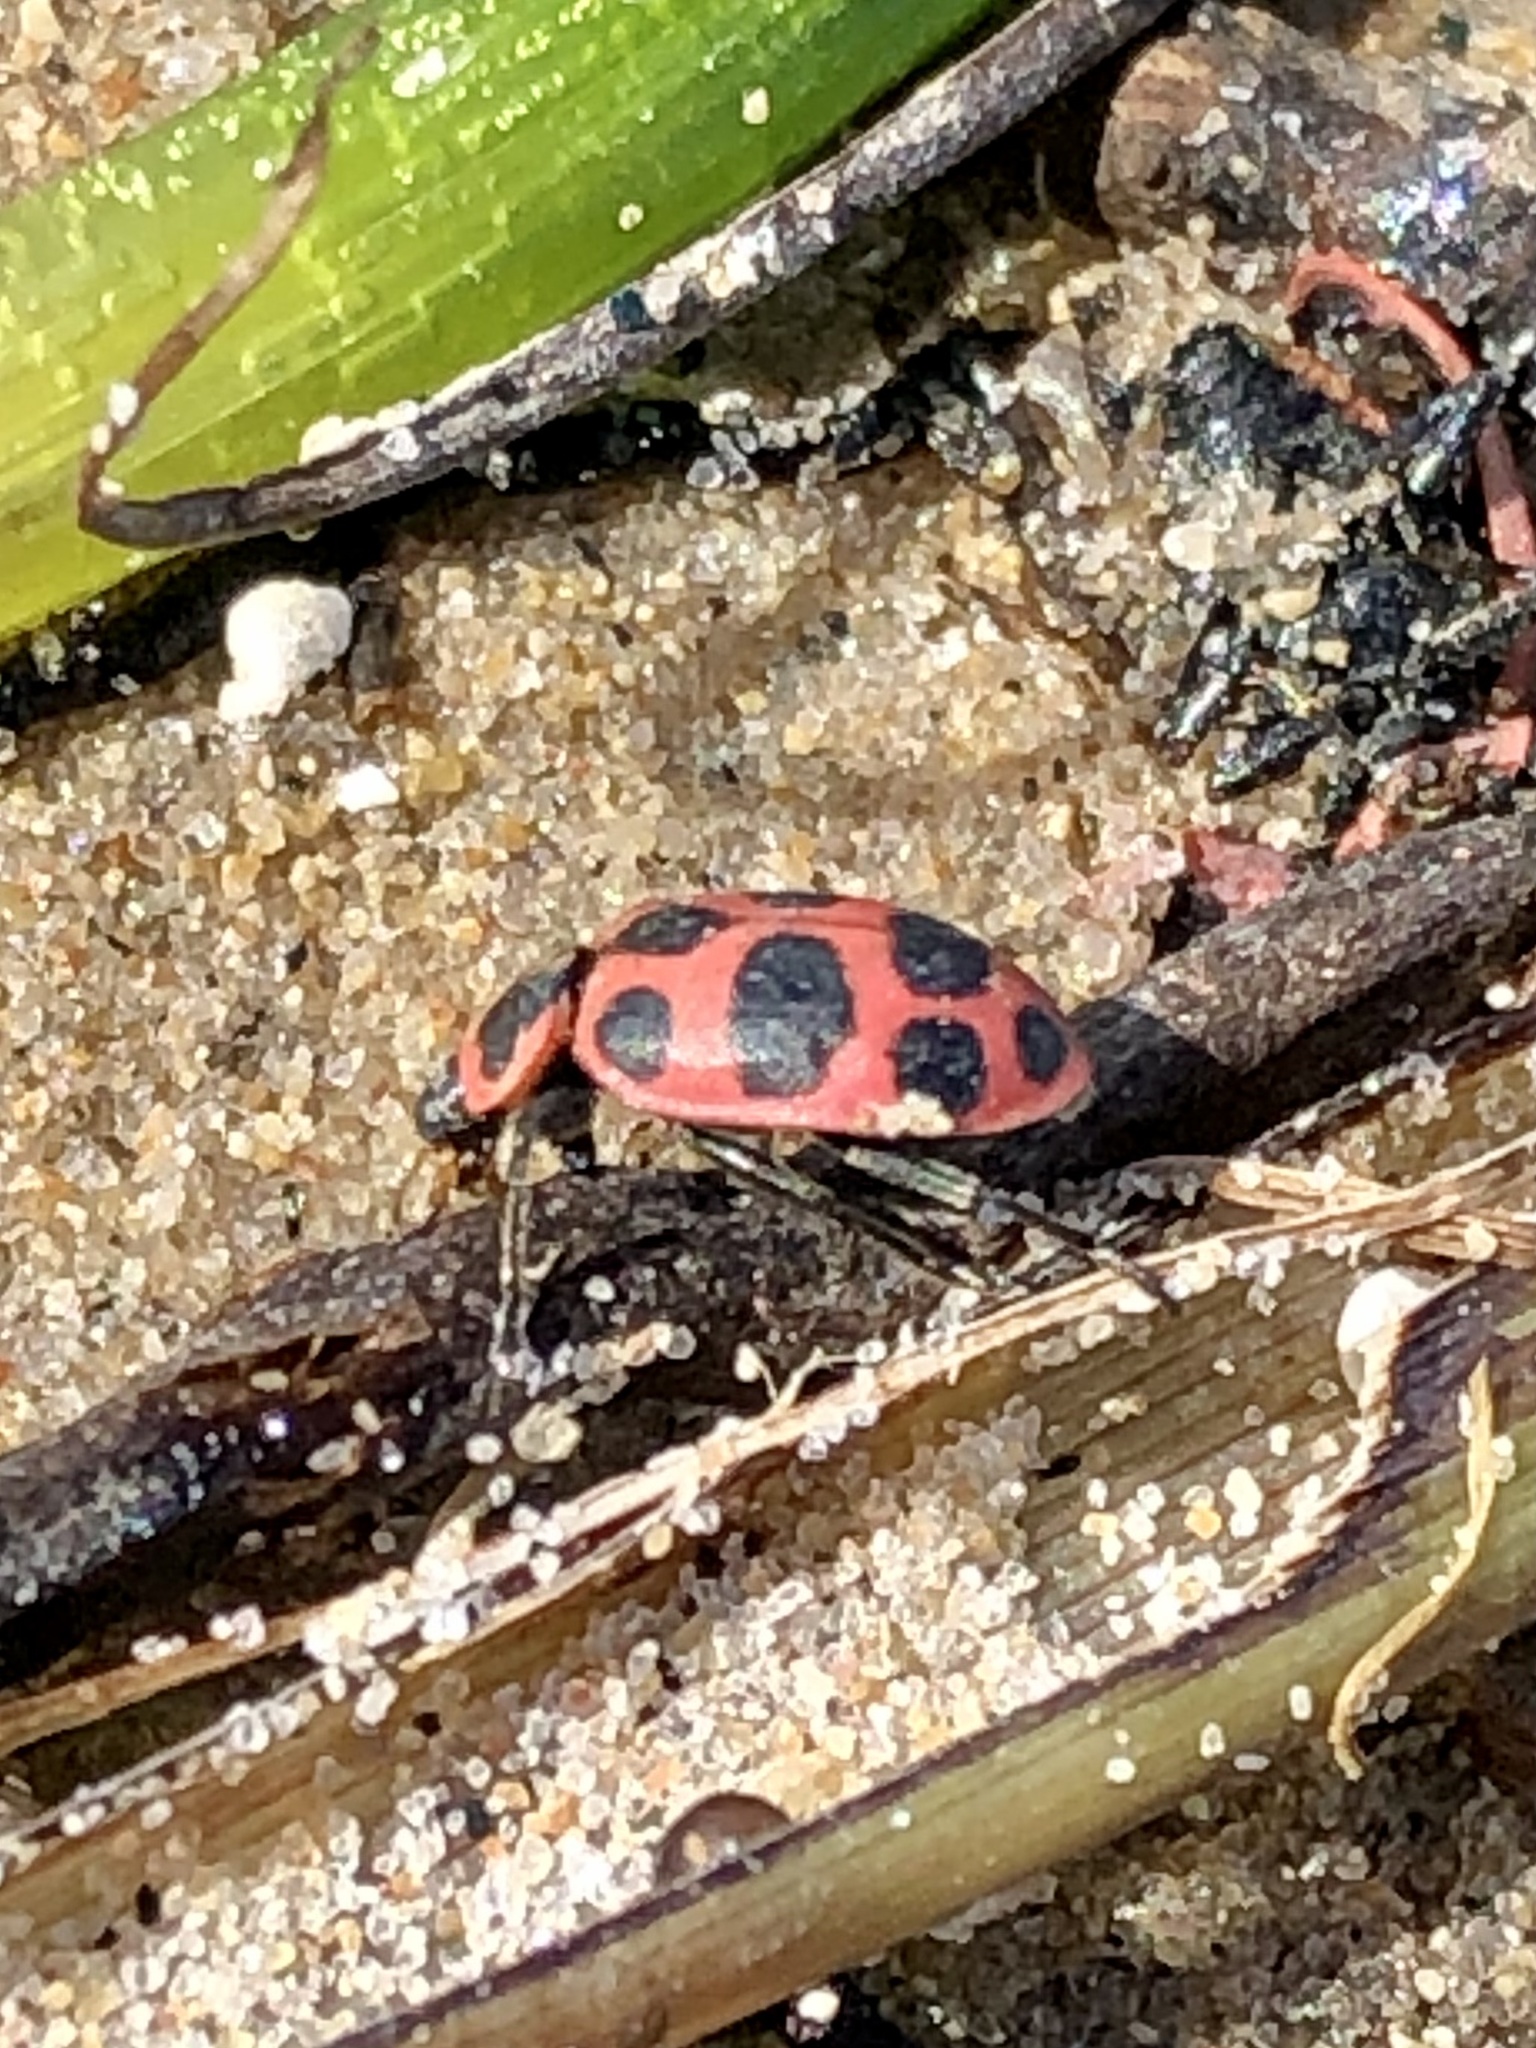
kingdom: Animalia
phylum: Arthropoda
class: Insecta
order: Coleoptera
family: Coccinellidae
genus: Coleomegilla
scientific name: Coleomegilla maculata
